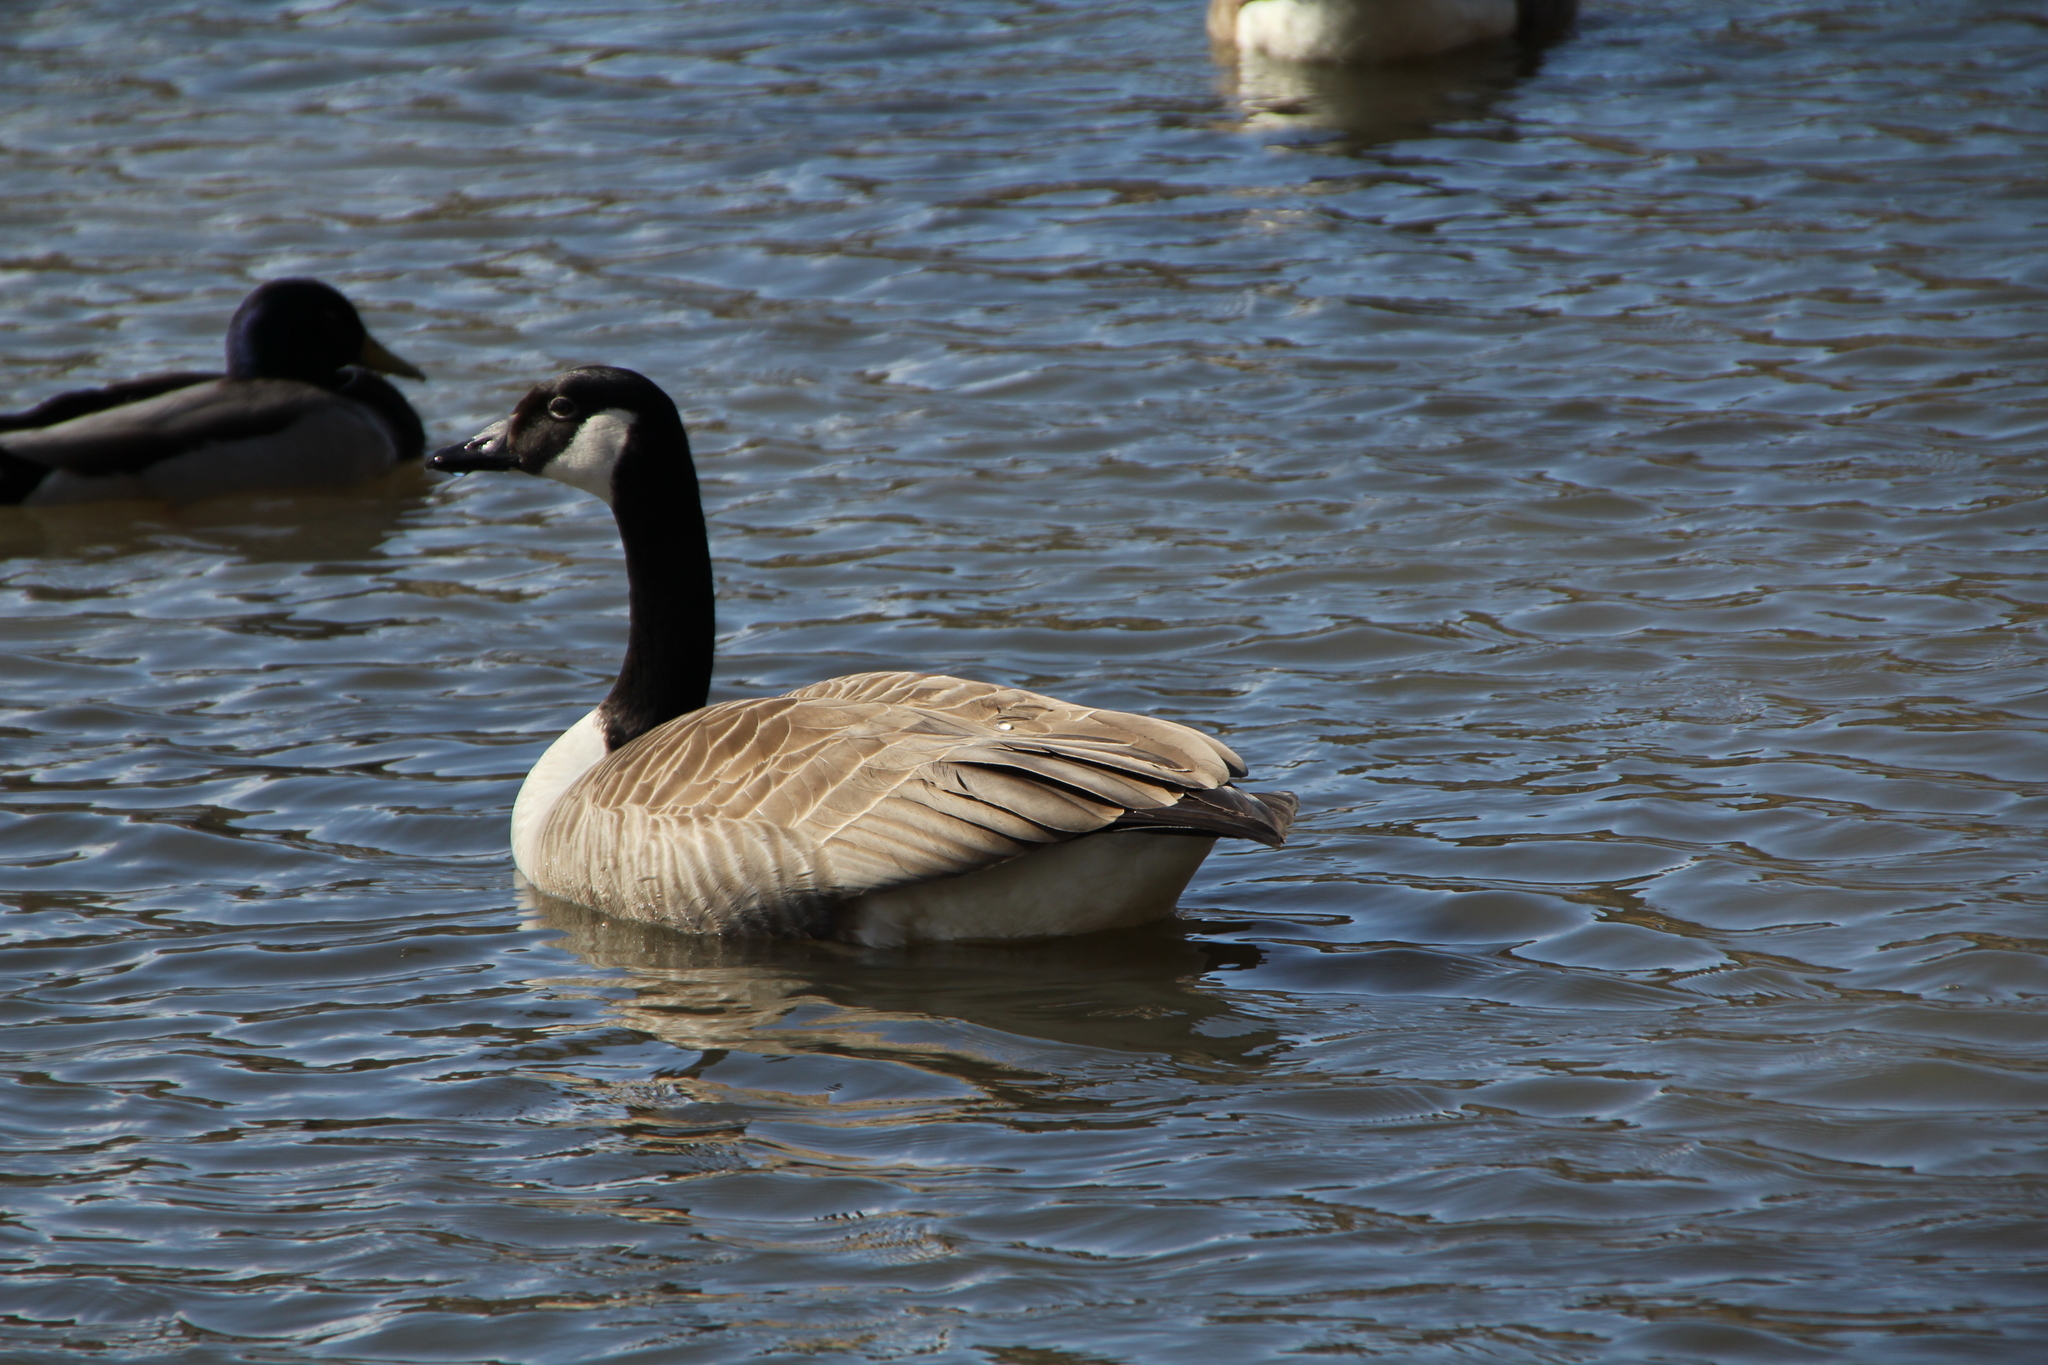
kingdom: Animalia
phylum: Chordata
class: Aves
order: Anseriformes
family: Anatidae
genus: Branta
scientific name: Branta canadensis
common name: Canada goose
